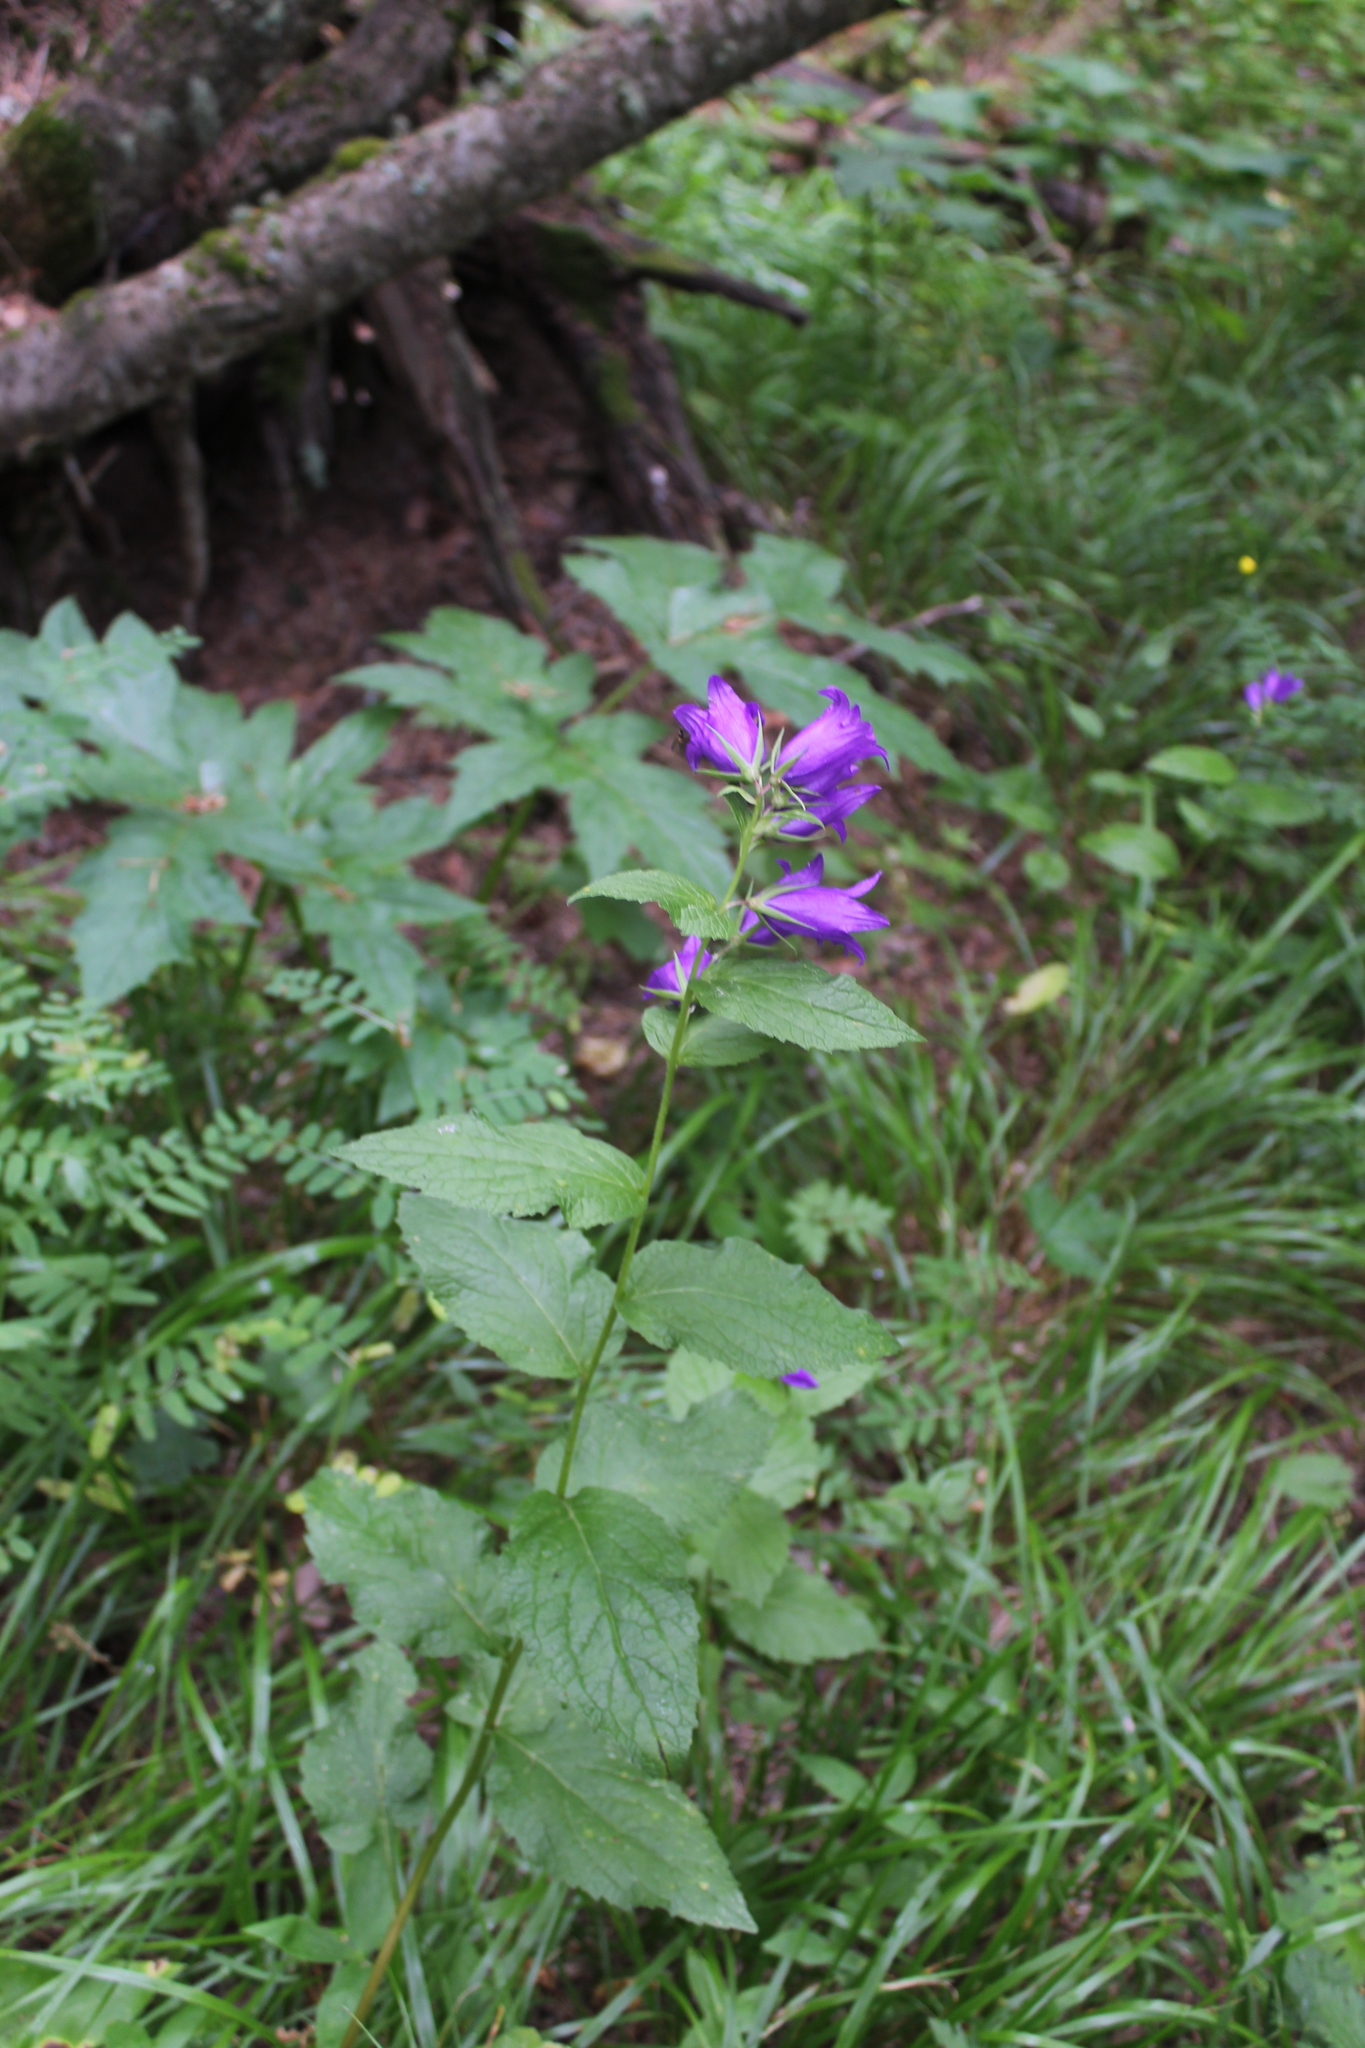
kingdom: Plantae
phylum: Tracheophyta
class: Magnoliopsida
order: Asterales
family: Campanulaceae
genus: Campanula
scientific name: Campanula latifolia
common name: Giant bellflower
